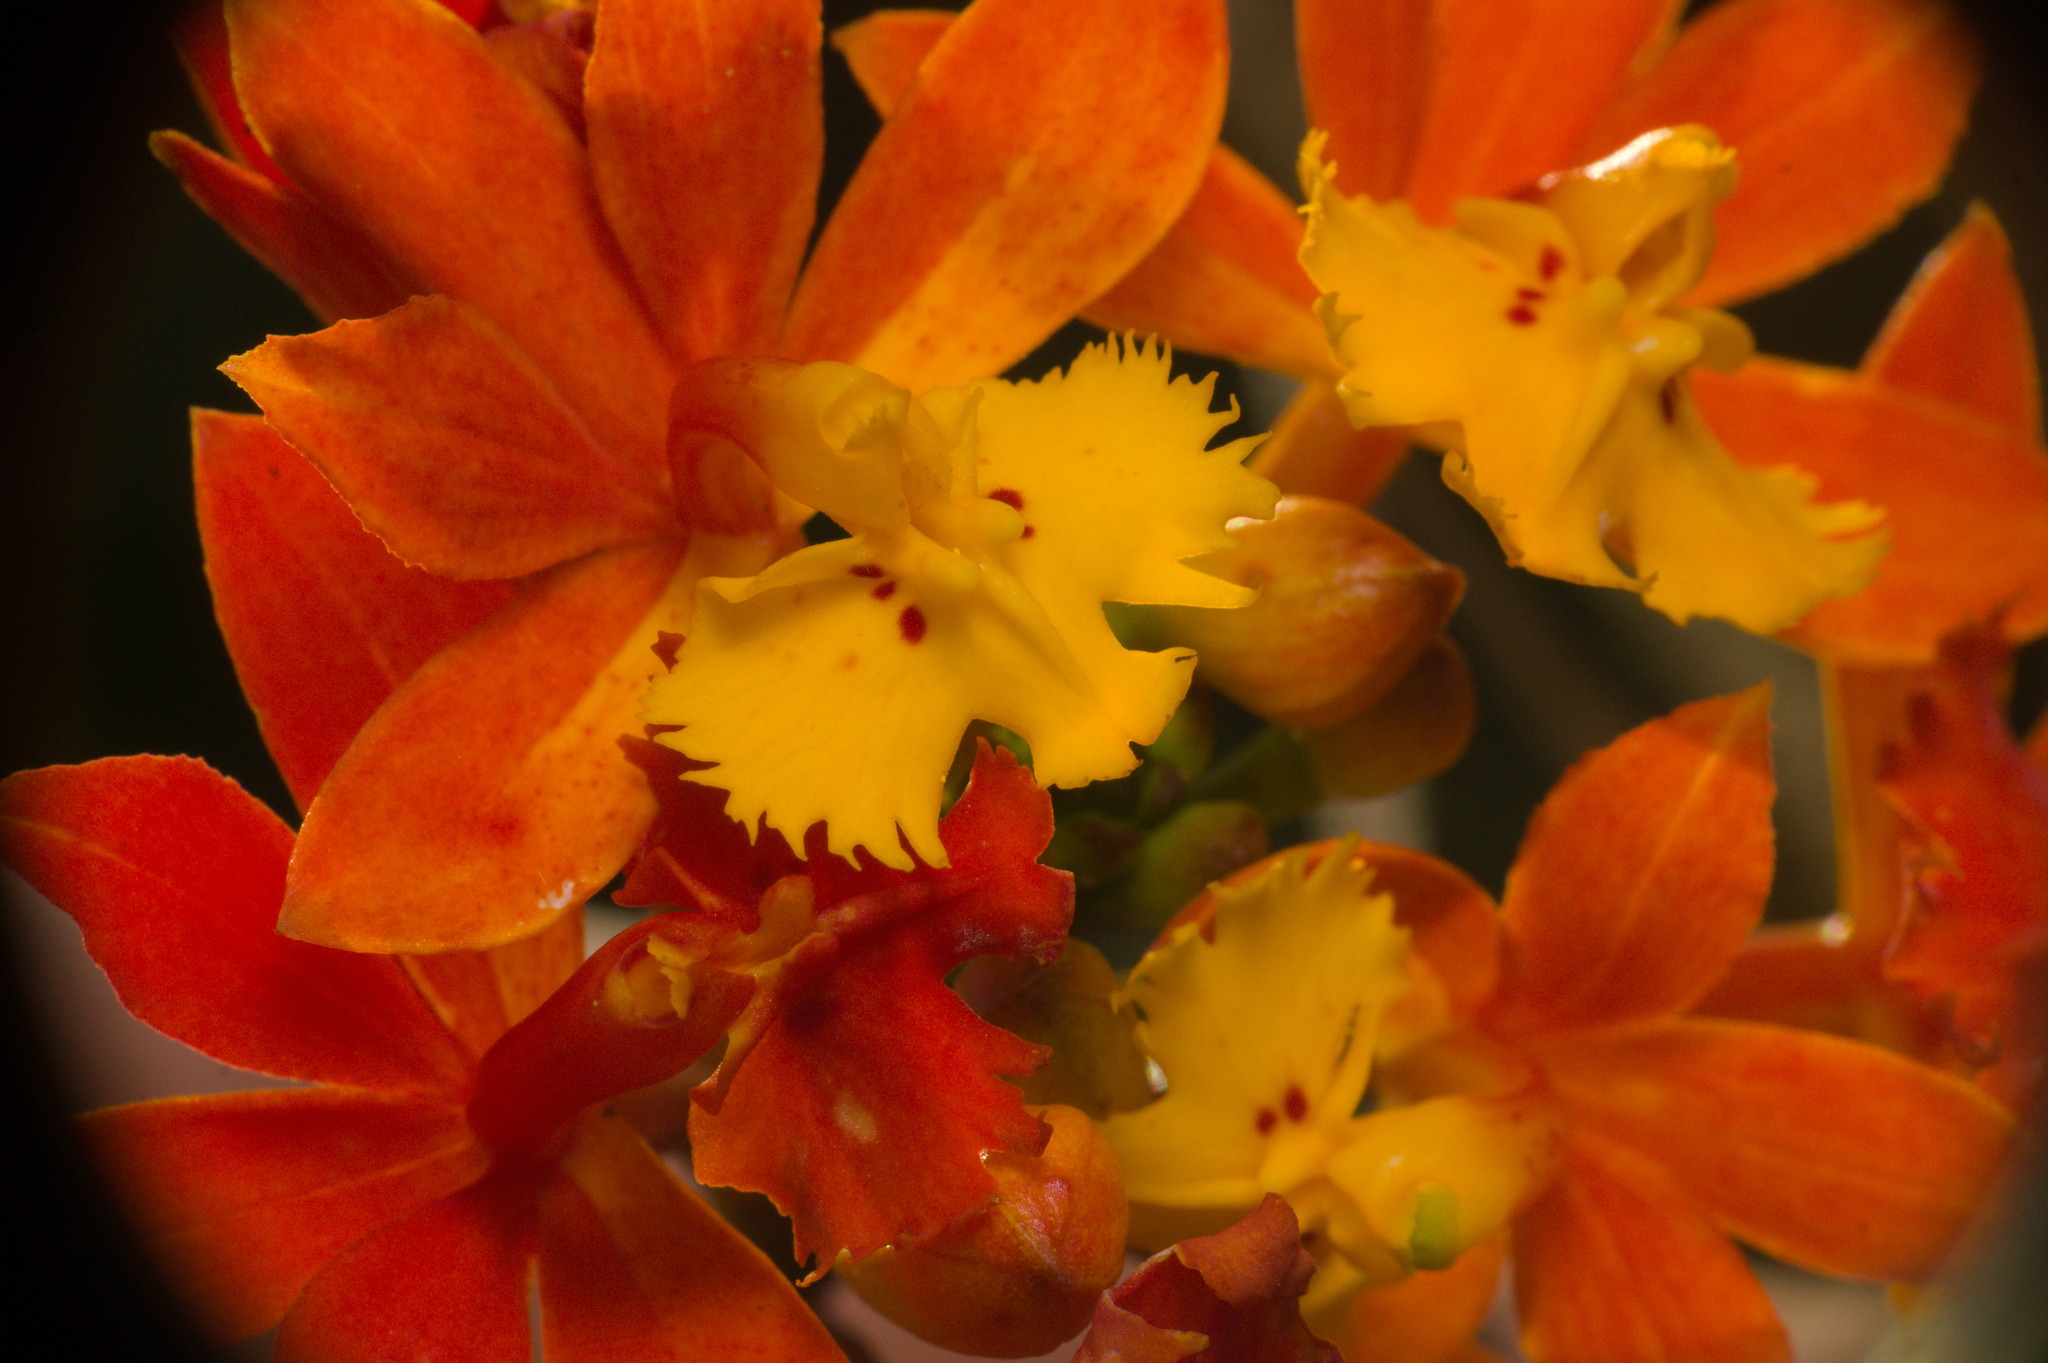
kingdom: Plantae
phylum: Tracheophyta
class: Liliopsida
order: Asparagales
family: Orchidaceae
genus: Epidendrum
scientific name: Epidendrum fulgens
